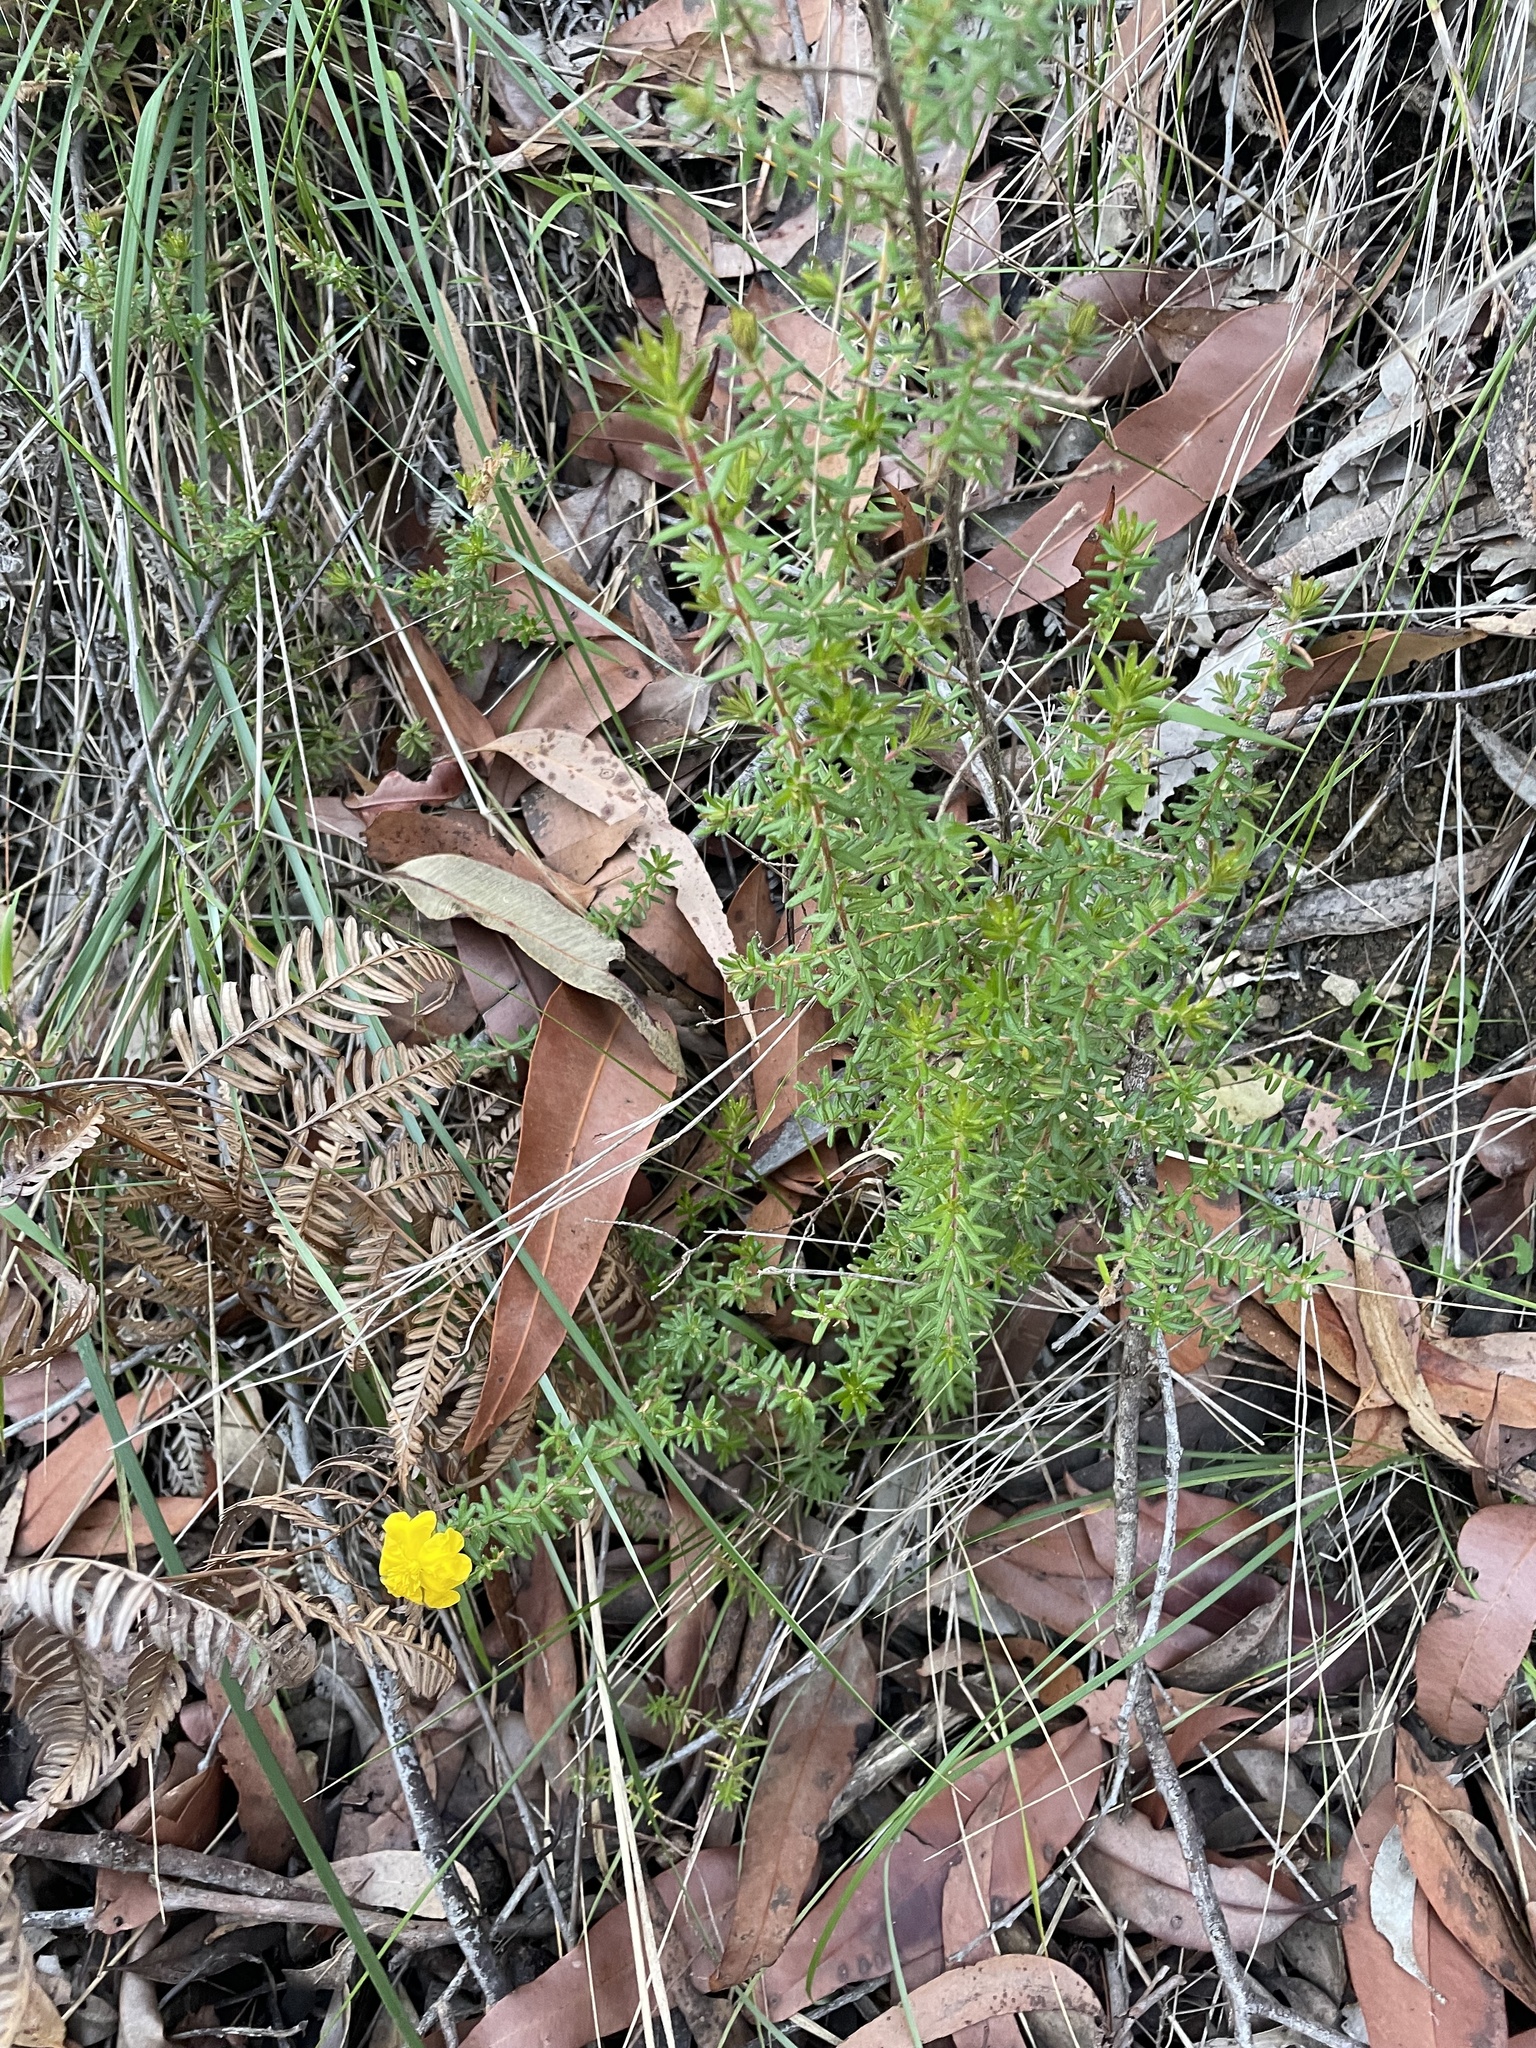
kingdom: Plantae
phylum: Tracheophyta
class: Magnoliopsida
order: Dilleniales
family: Dilleniaceae
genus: Hibbertia
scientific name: Hibbertia vestita
